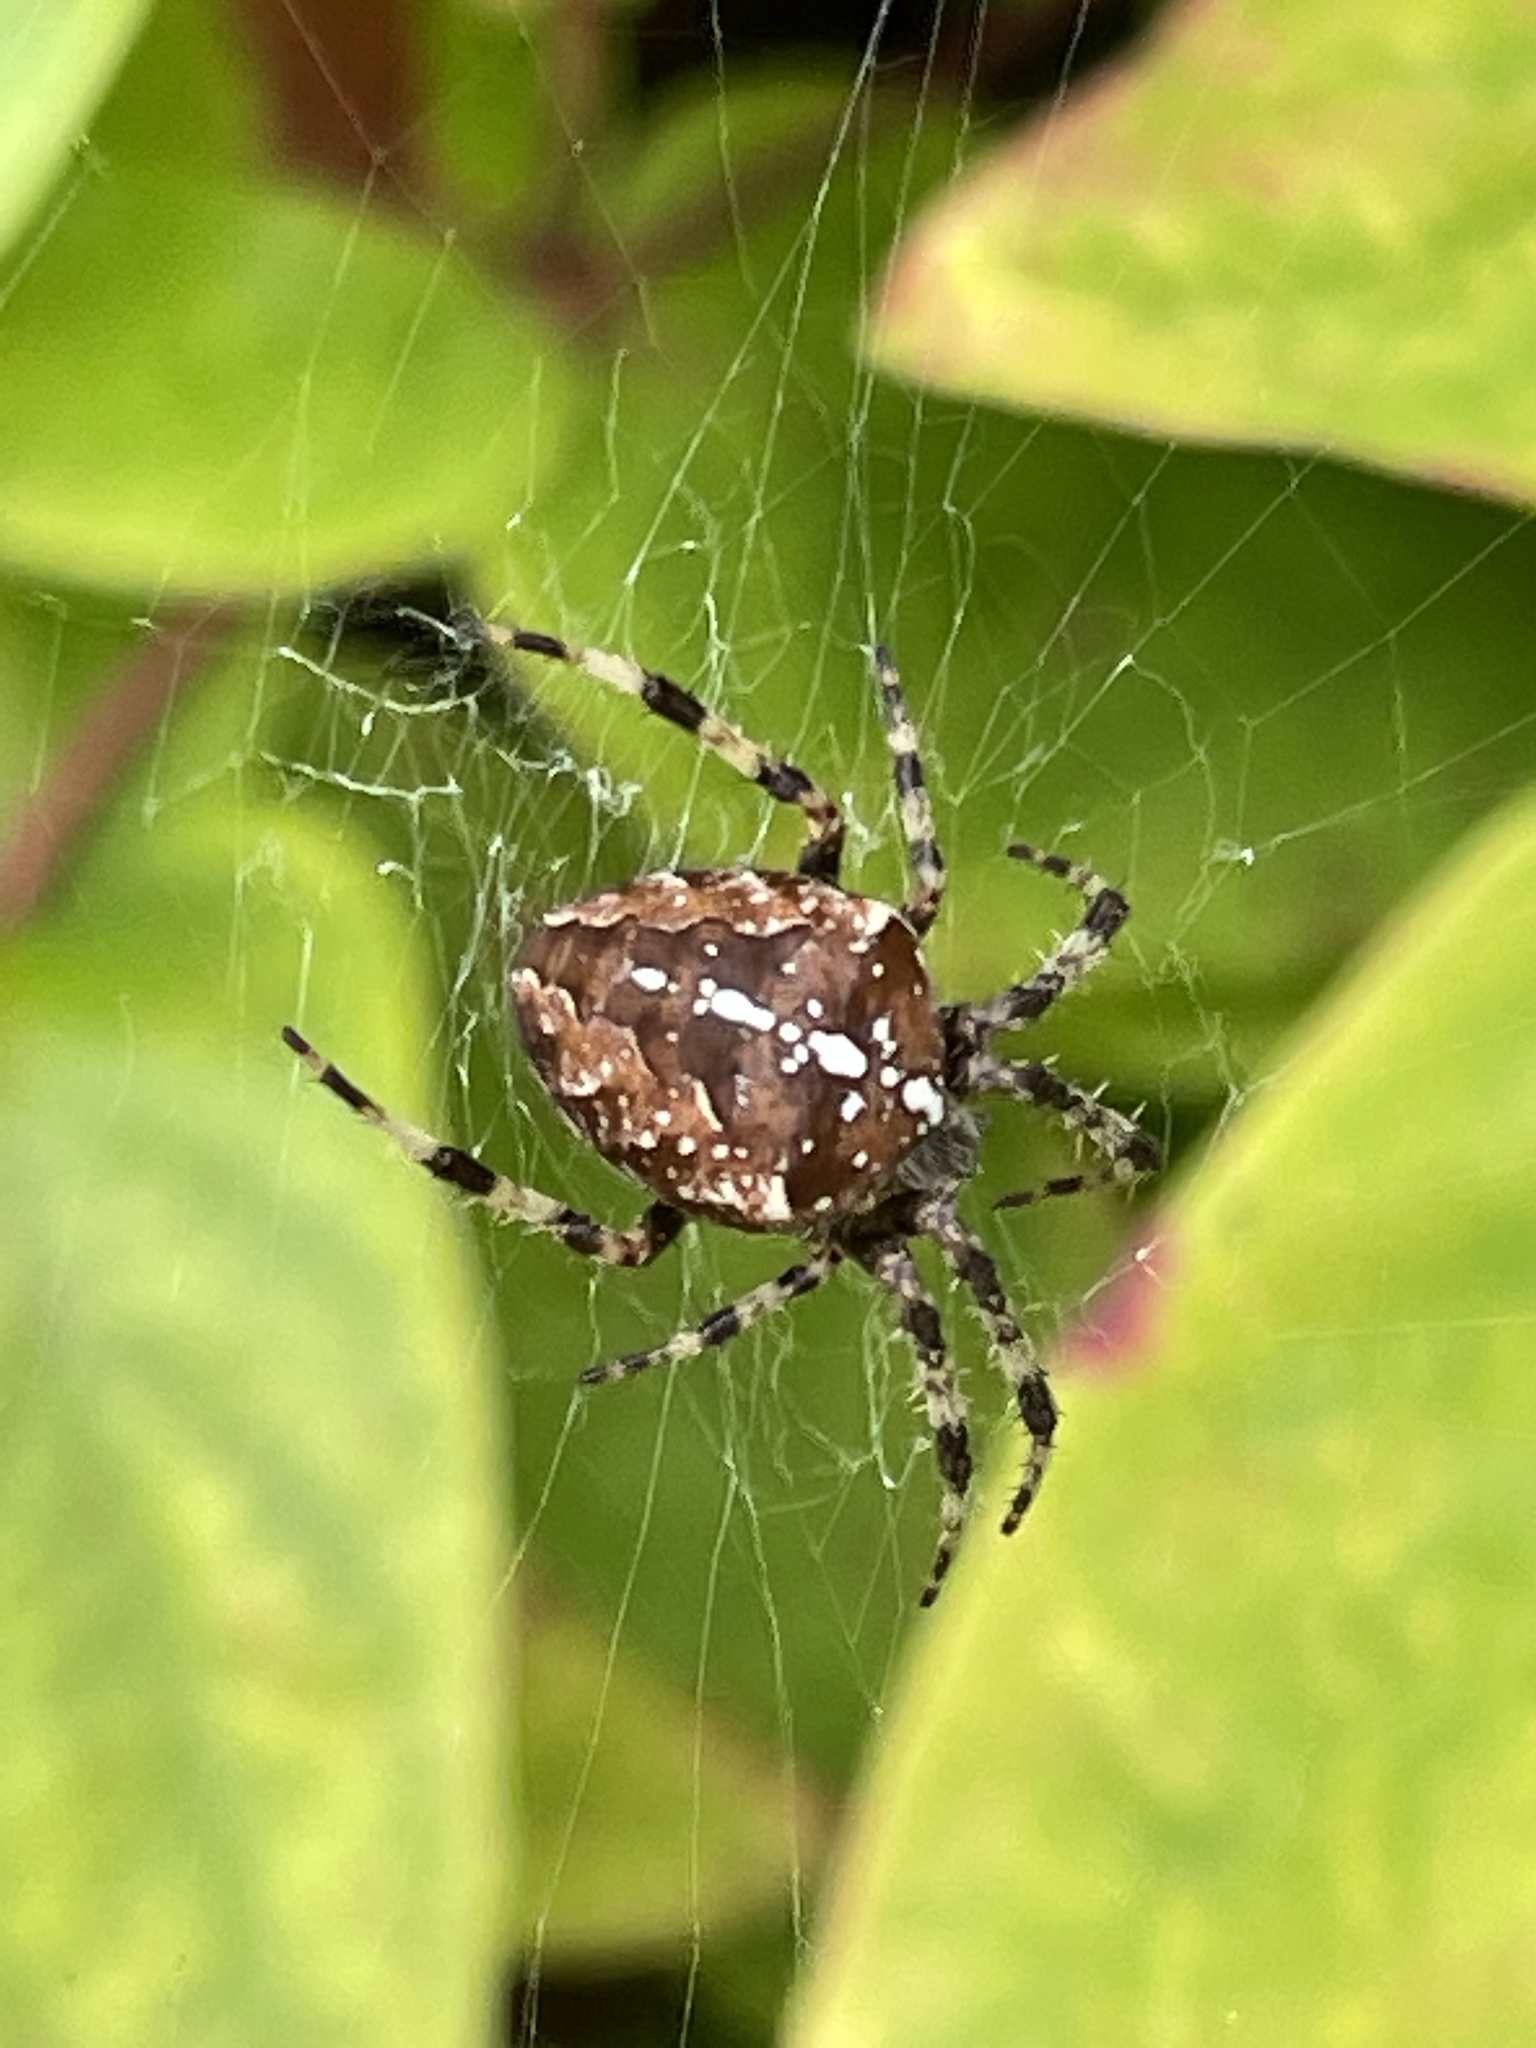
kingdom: Animalia
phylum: Arthropoda
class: Arachnida
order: Araneae
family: Araneidae
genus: Araneus
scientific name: Araneus diadematus
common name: Cross orbweaver
